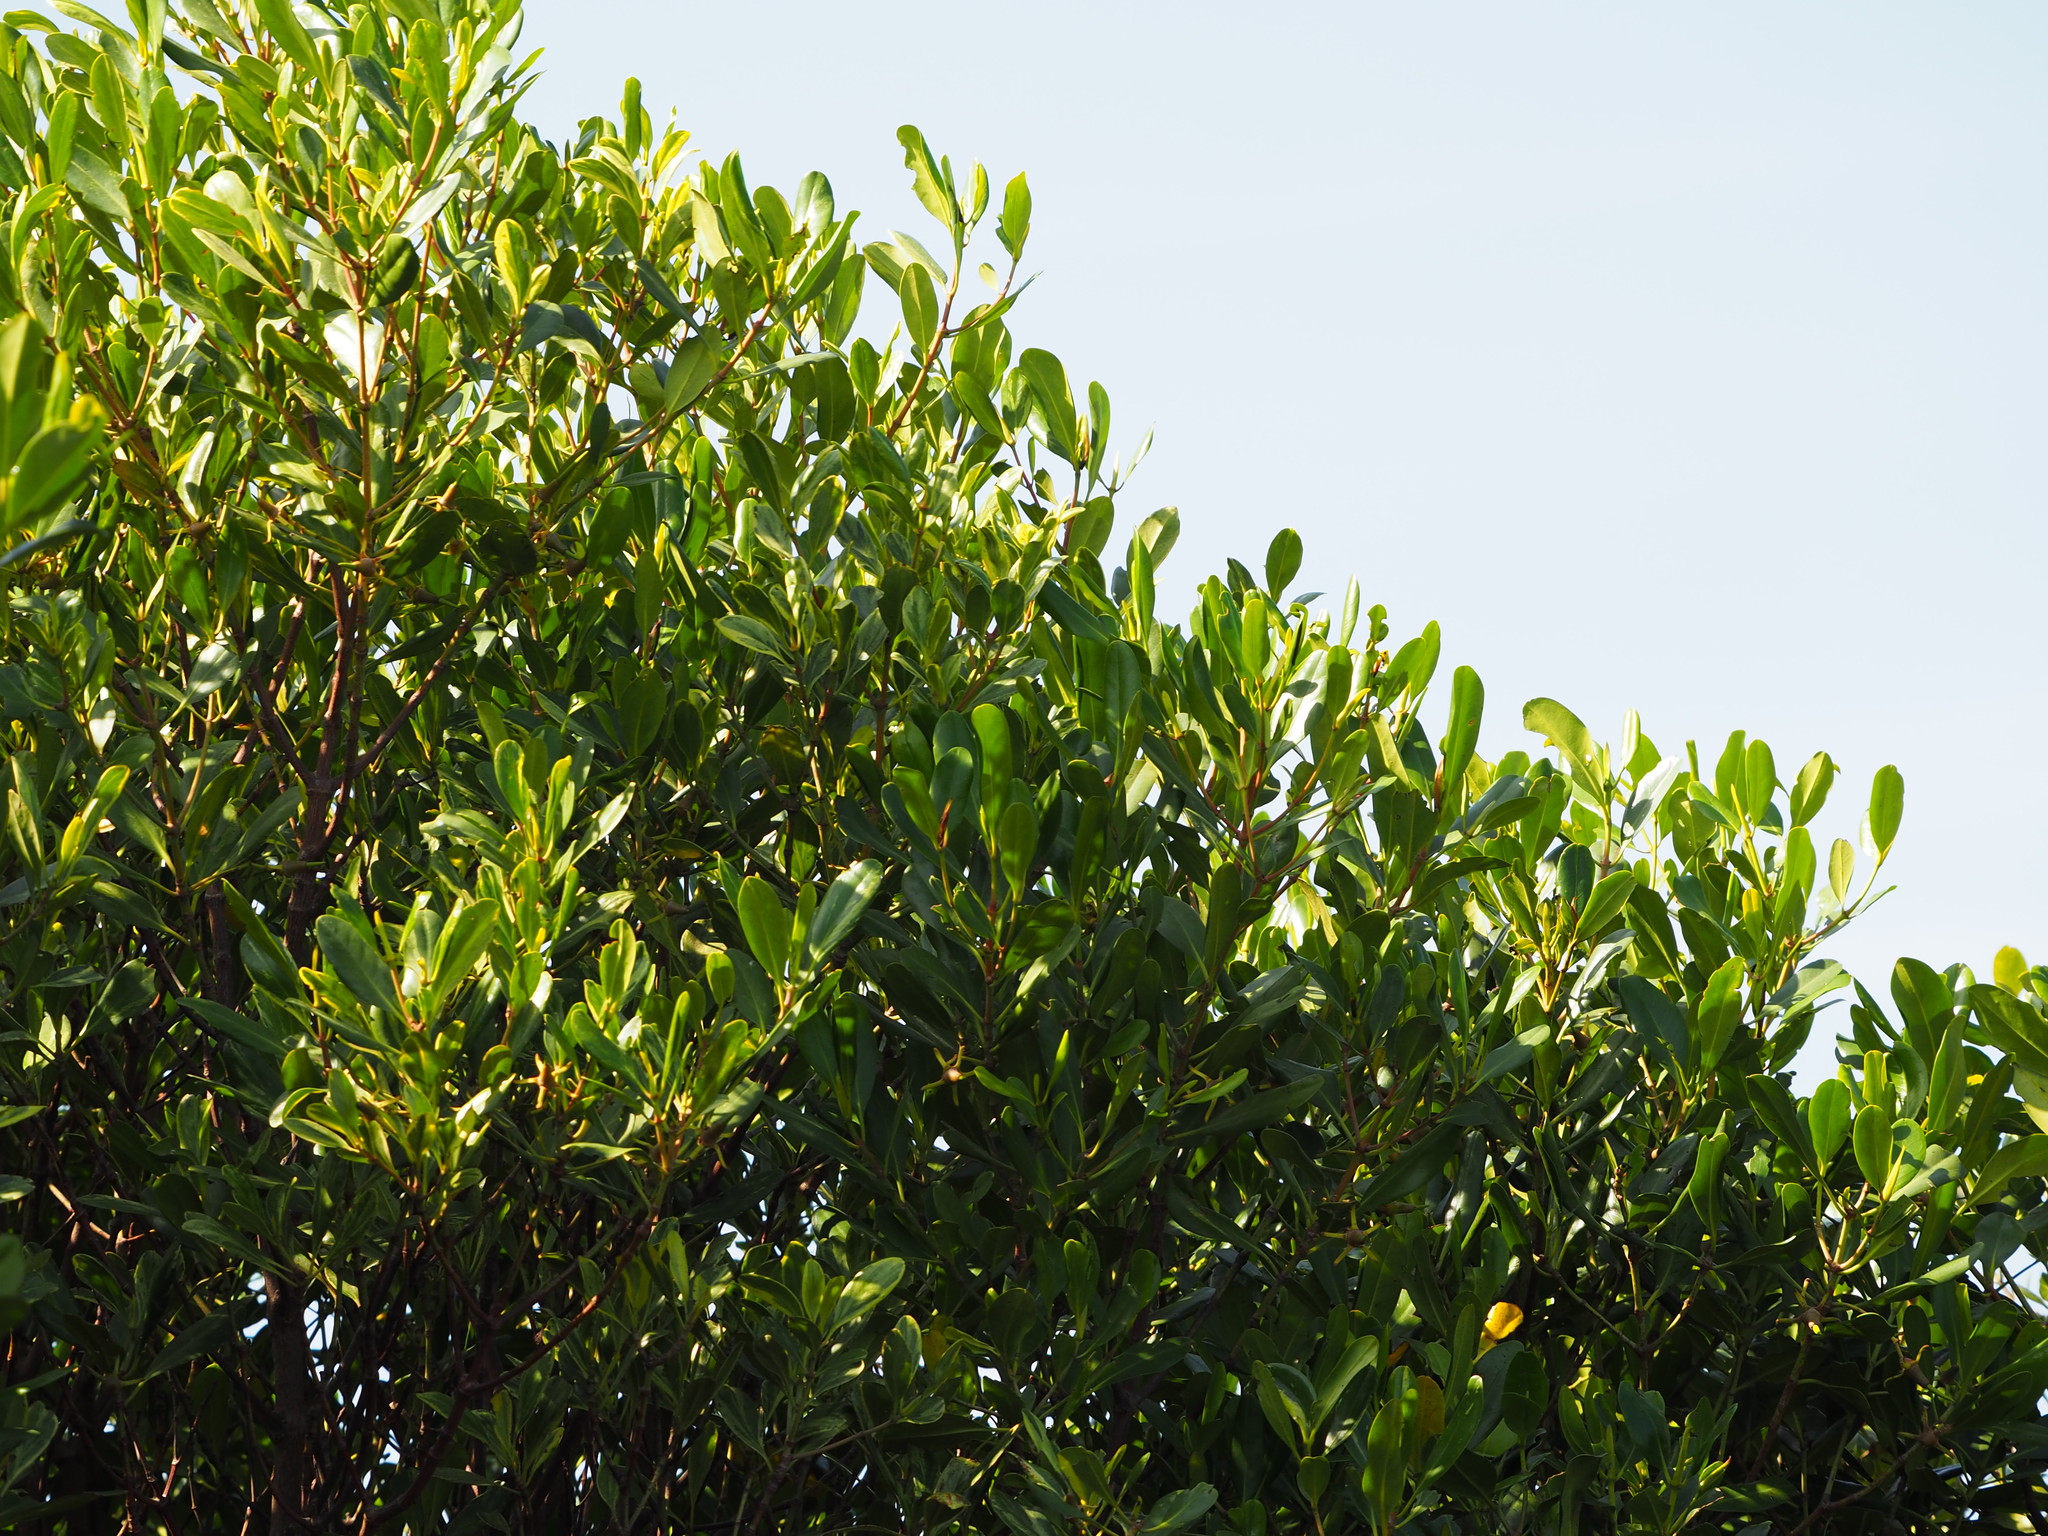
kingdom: Plantae
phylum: Tracheophyta
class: Magnoliopsida
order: Malpighiales
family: Rhizophoraceae
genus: Kandelia
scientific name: Kandelia obovata
